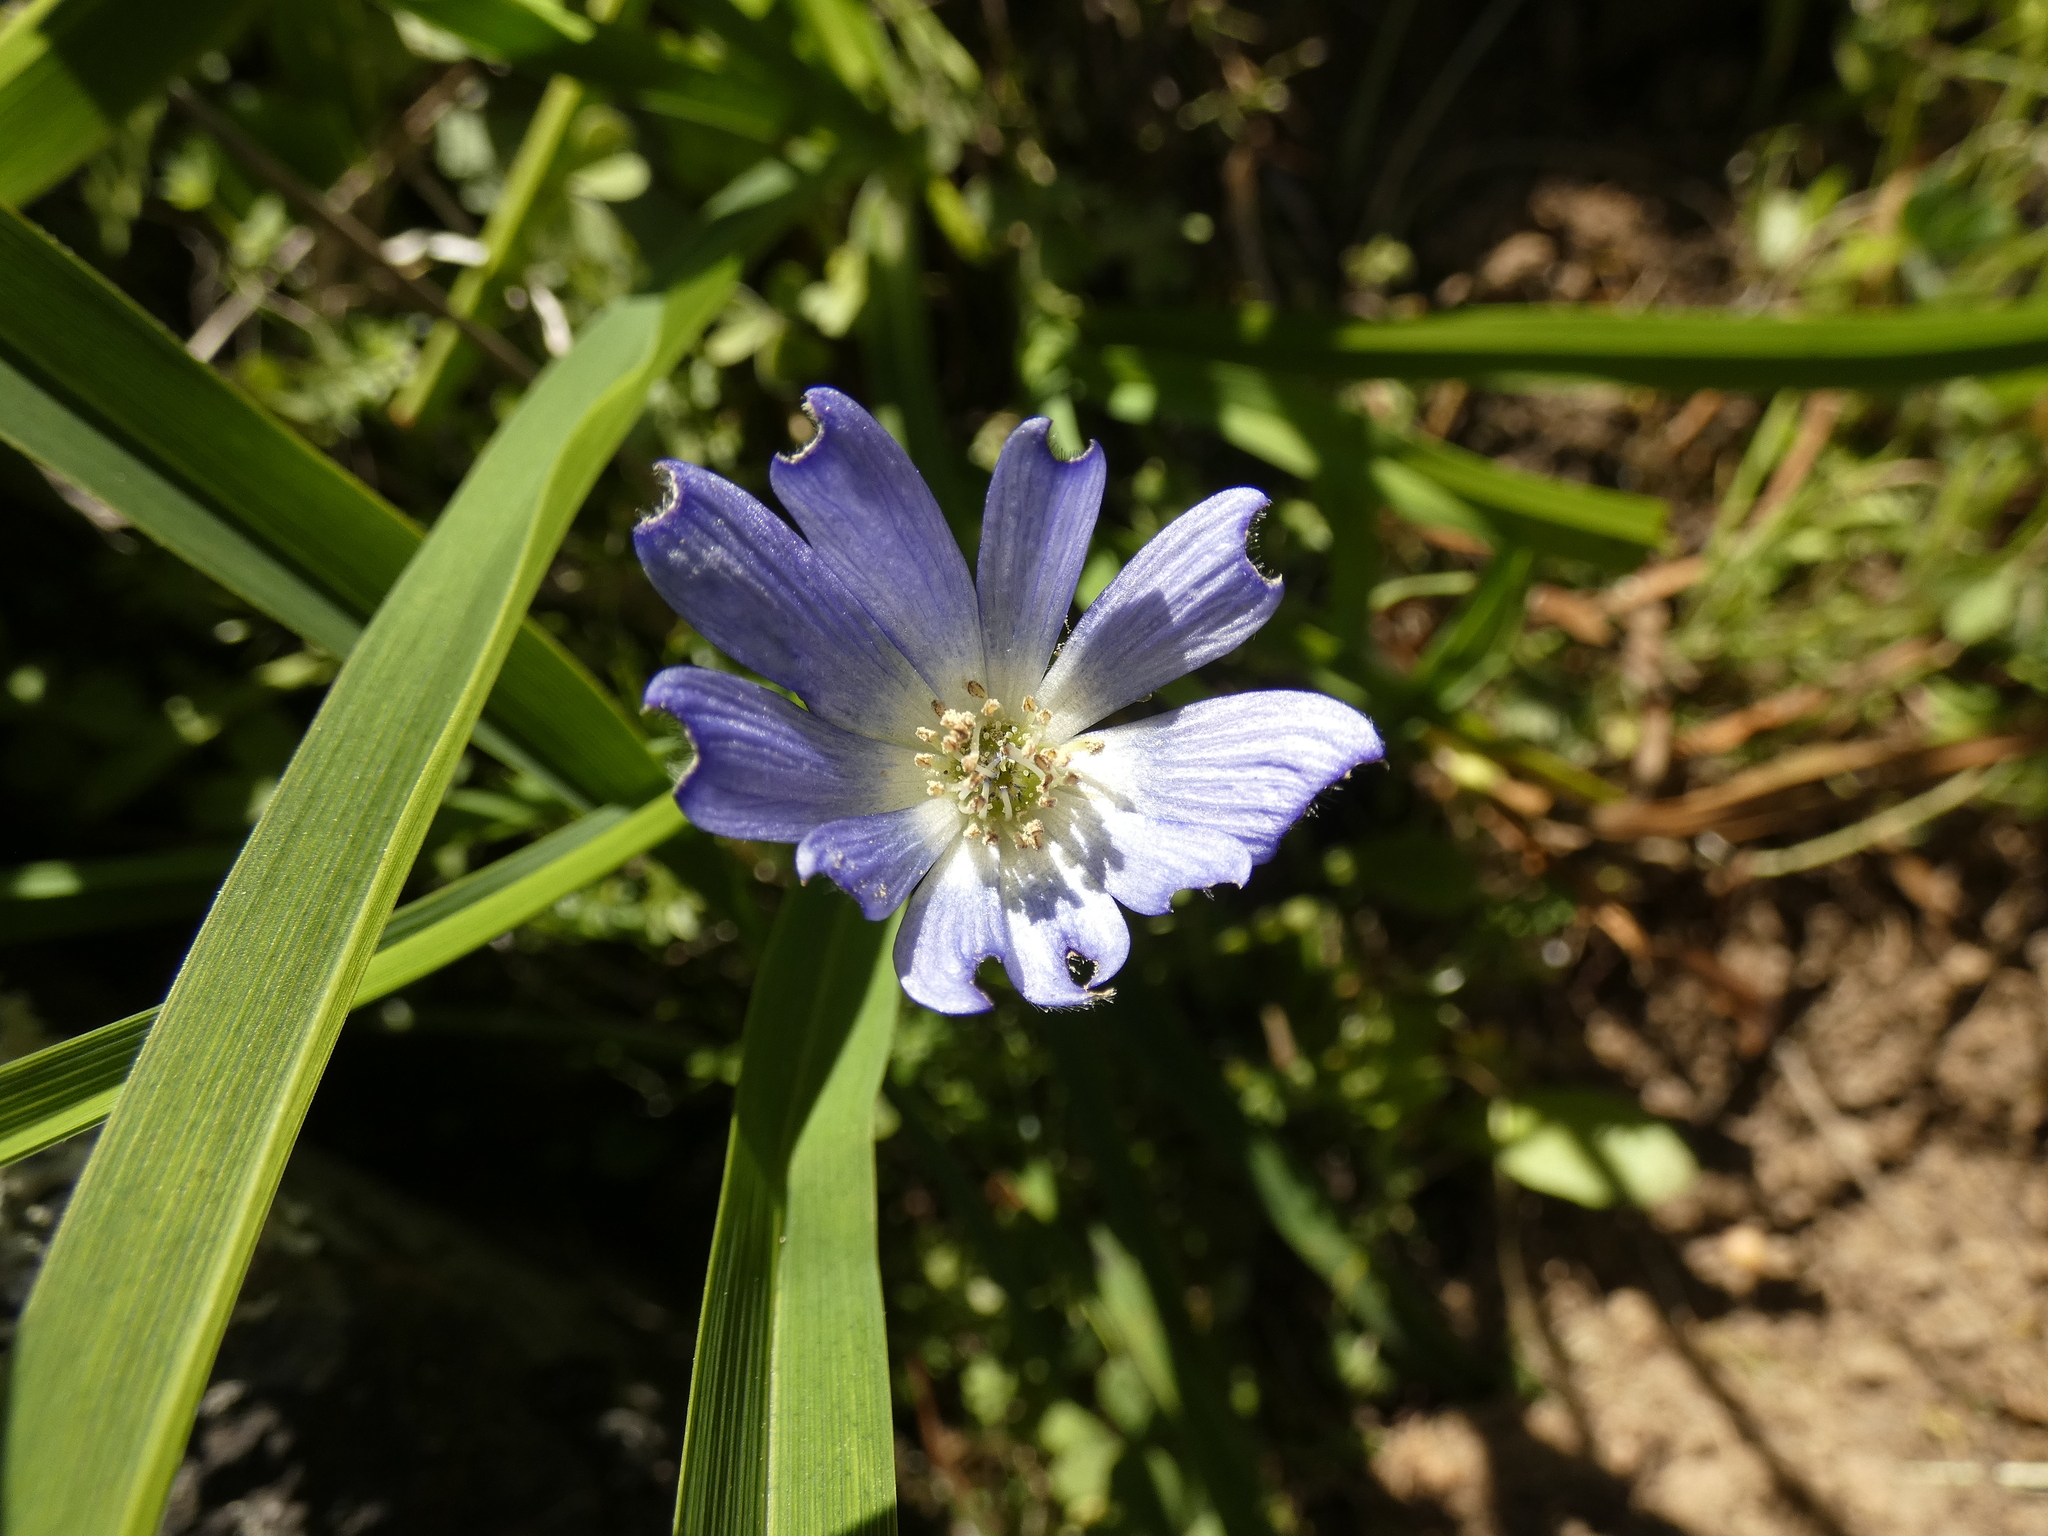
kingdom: Plantae
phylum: Tracheophyta
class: Magnoliopsida
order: Ranunculales
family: Ranunculaceae
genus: Anemone
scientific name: Anemone decapetala
